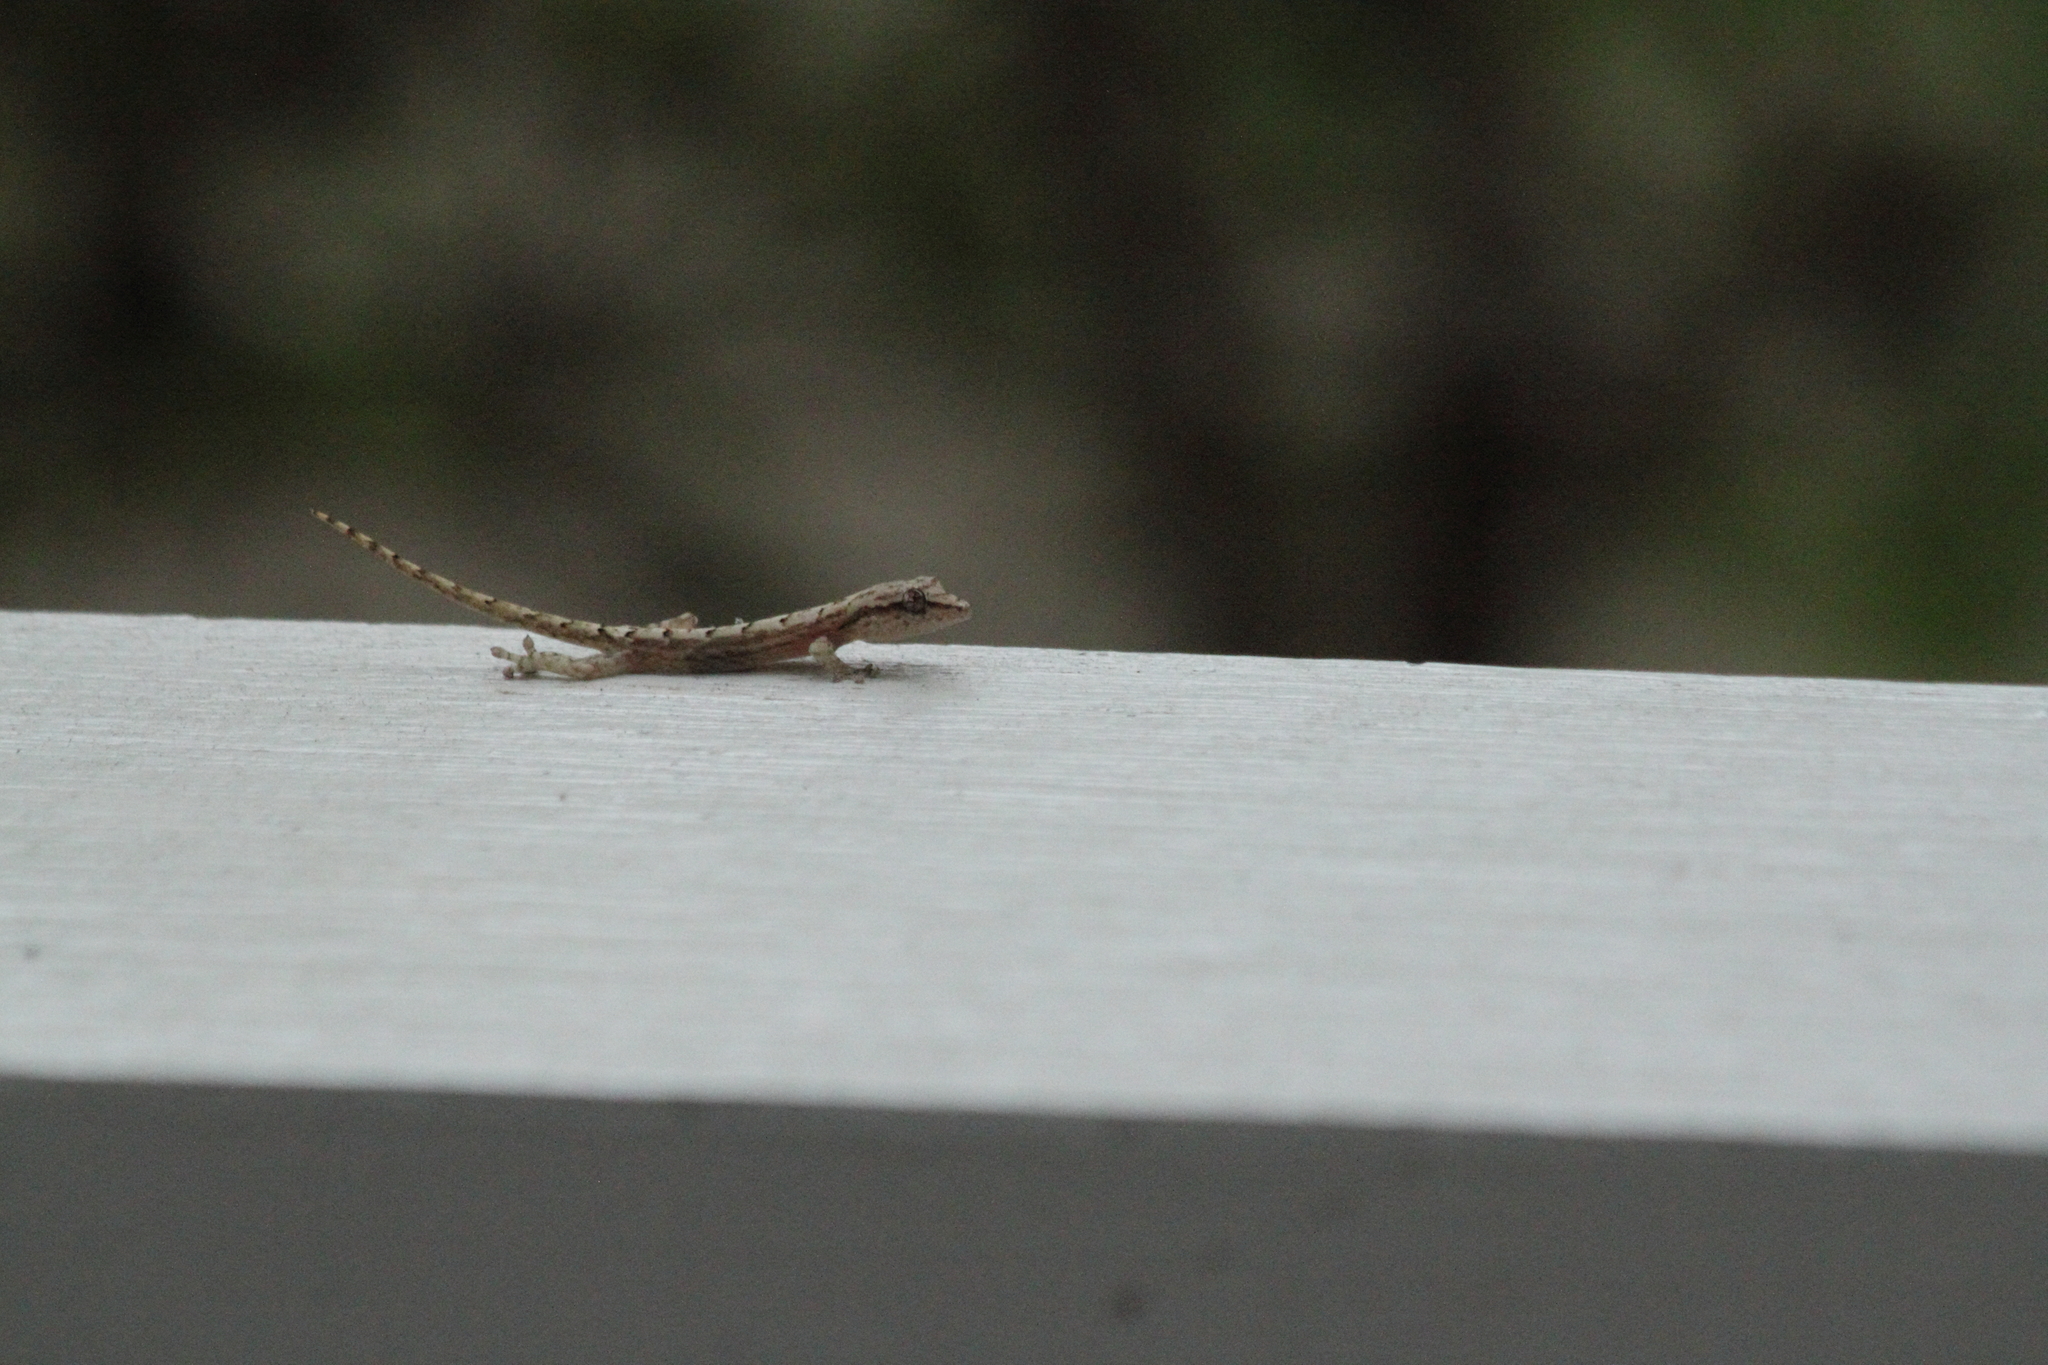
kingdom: Animalia
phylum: Chordata
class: Squamata
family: Gekkonidae
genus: Lepidodactylus
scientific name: Lepidodactylus lugubris
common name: Mourning gecko
